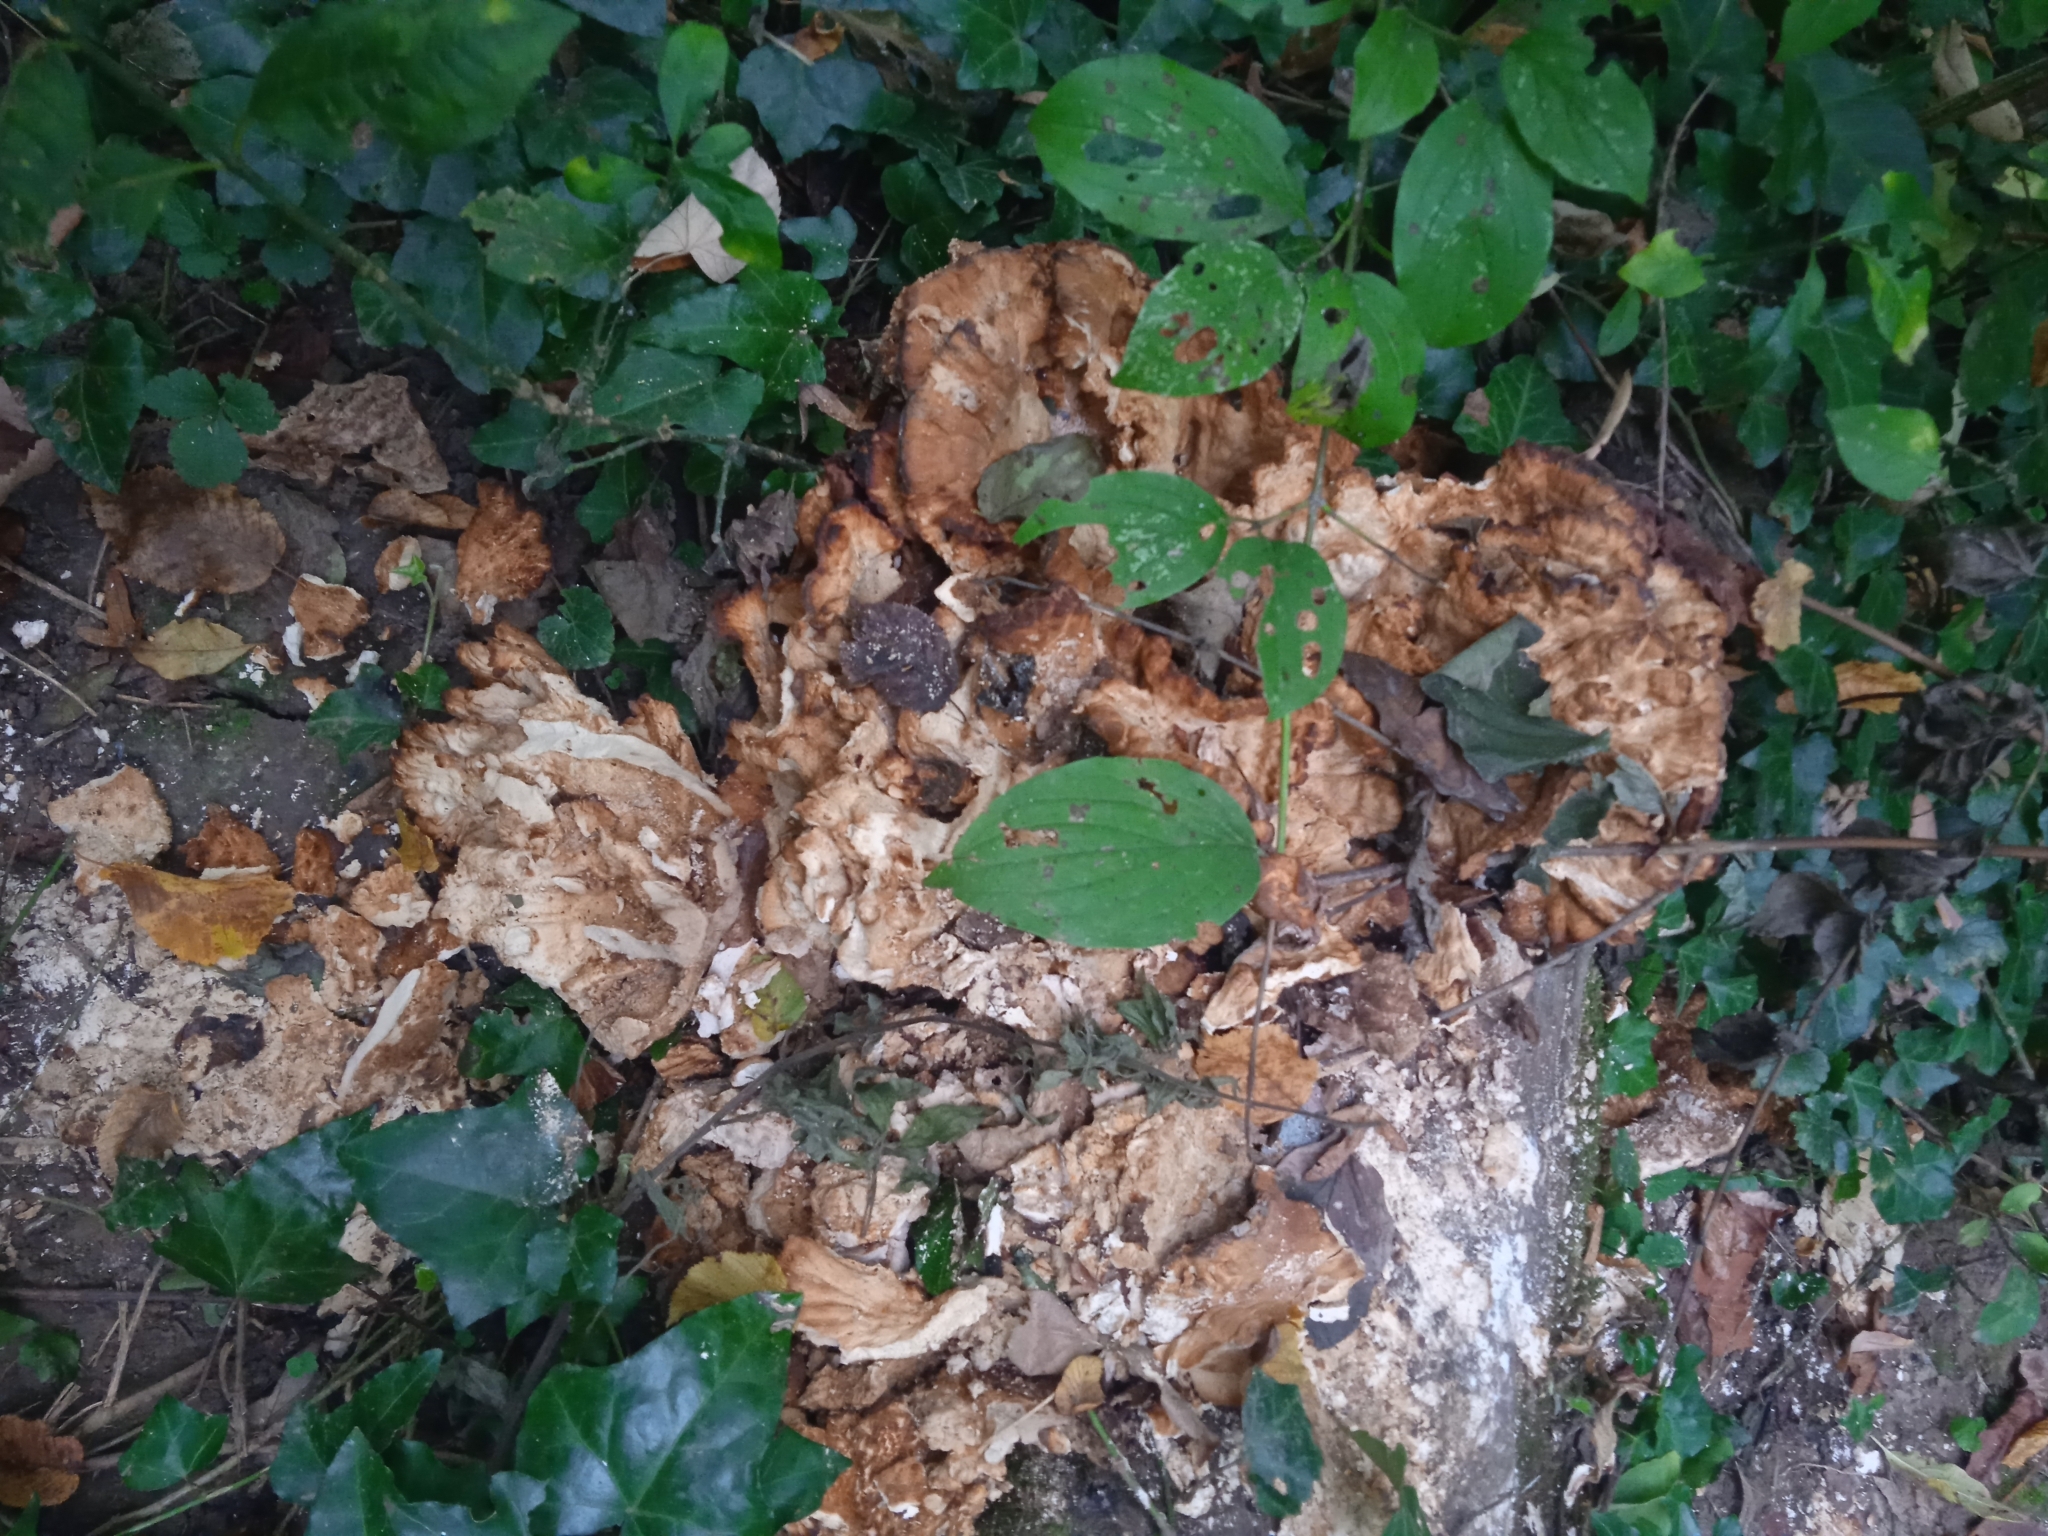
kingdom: Fungi
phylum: Basidiomycota
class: Agaricomycetes
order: Polyporales
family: Meripilaceae
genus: Meripilus
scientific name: Meripilus giganteus
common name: Giant polypore
